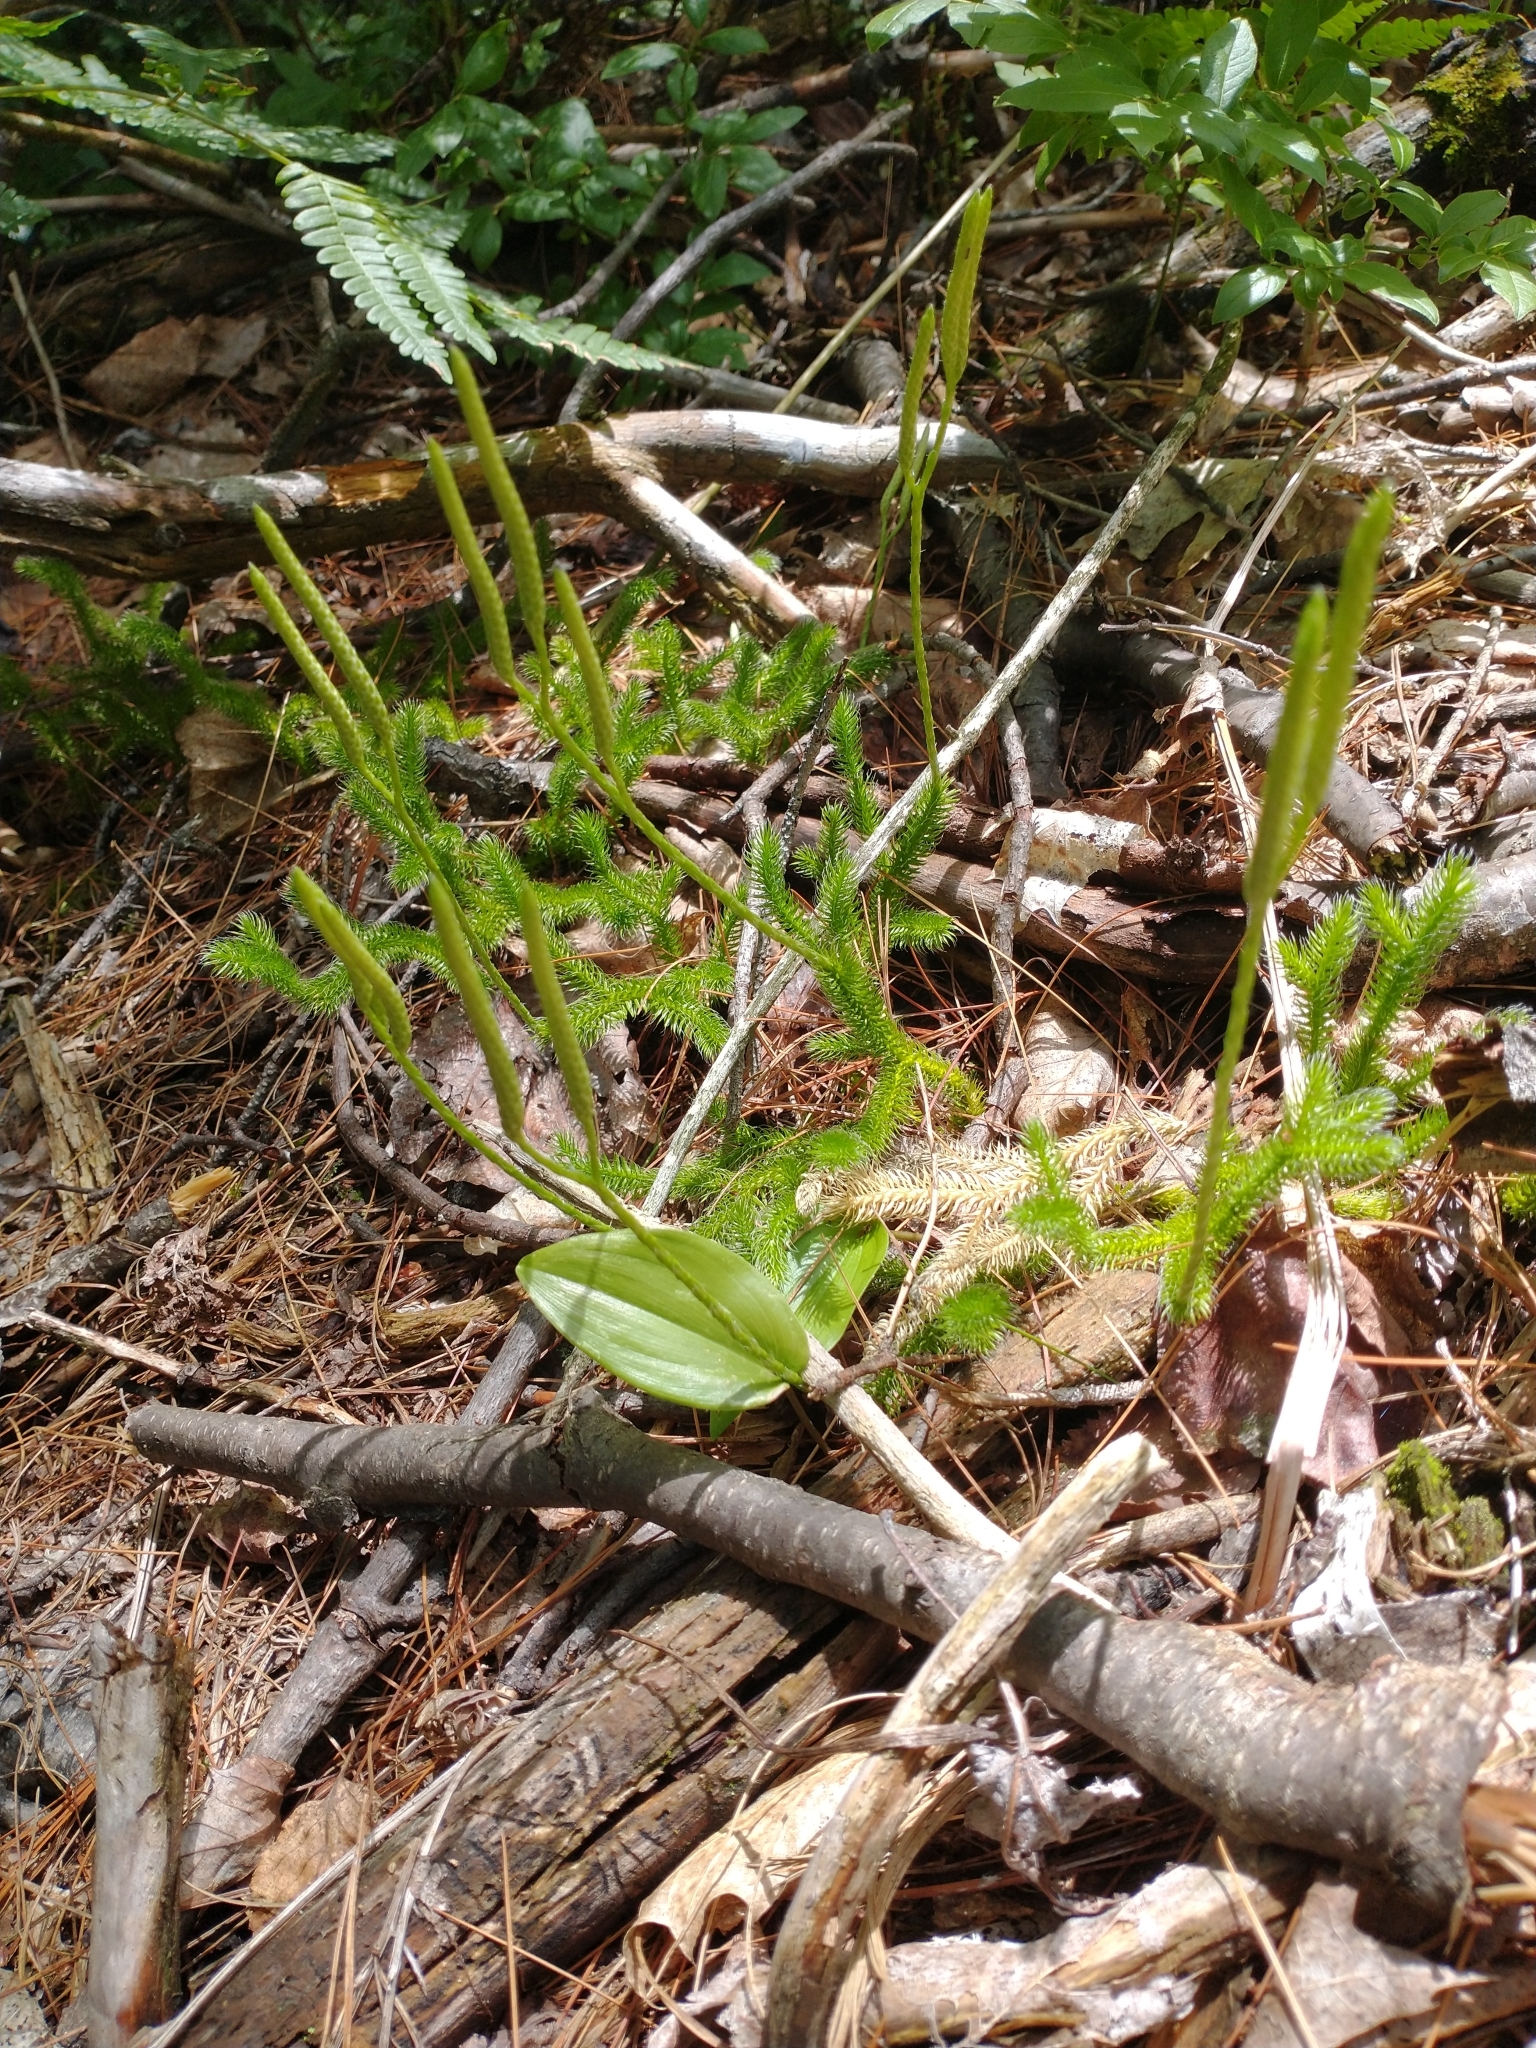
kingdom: Plantae
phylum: Tracheophyta
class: Lycopodiopsida
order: Lycopodiales
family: Lycopodiaceae
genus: Lycopodium
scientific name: Lycopodium clavatum
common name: Stag's-horn clubmoss
